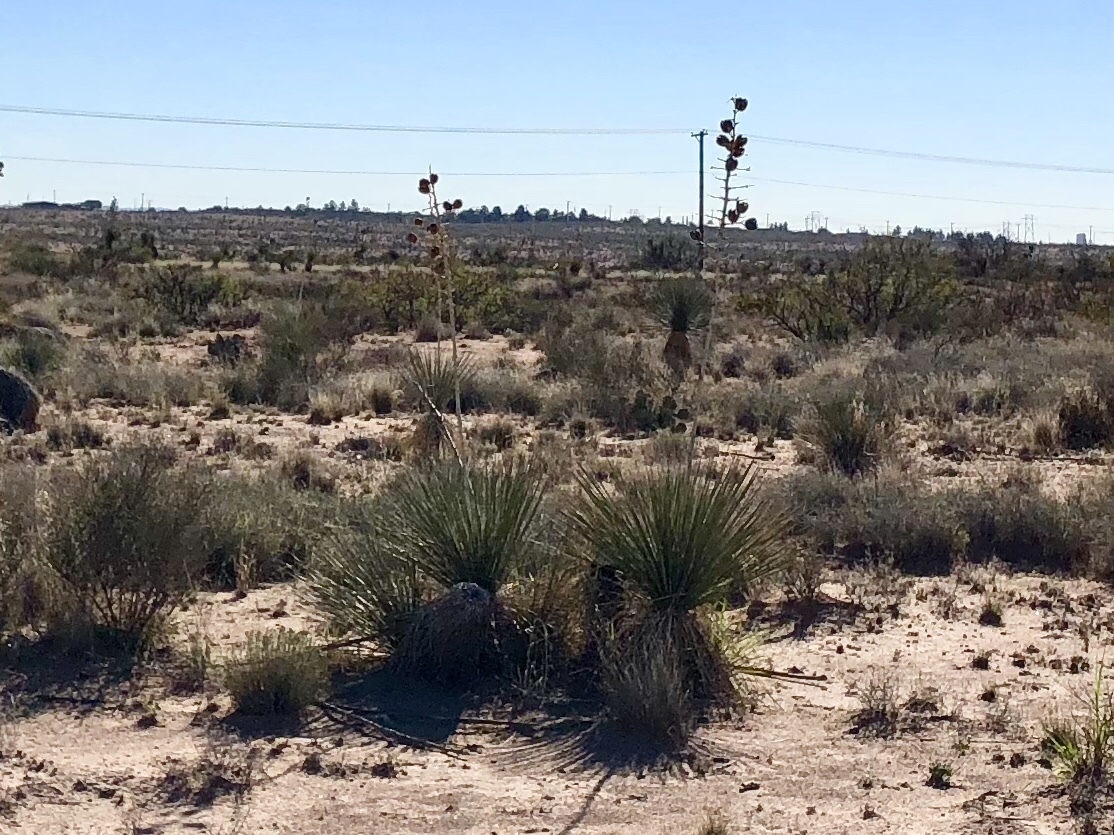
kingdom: Plantae
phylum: Tracheophyta
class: Liliopsida
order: Asparagales
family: Asparagaceae
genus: Yucca
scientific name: Yucca elata
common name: Palmella
